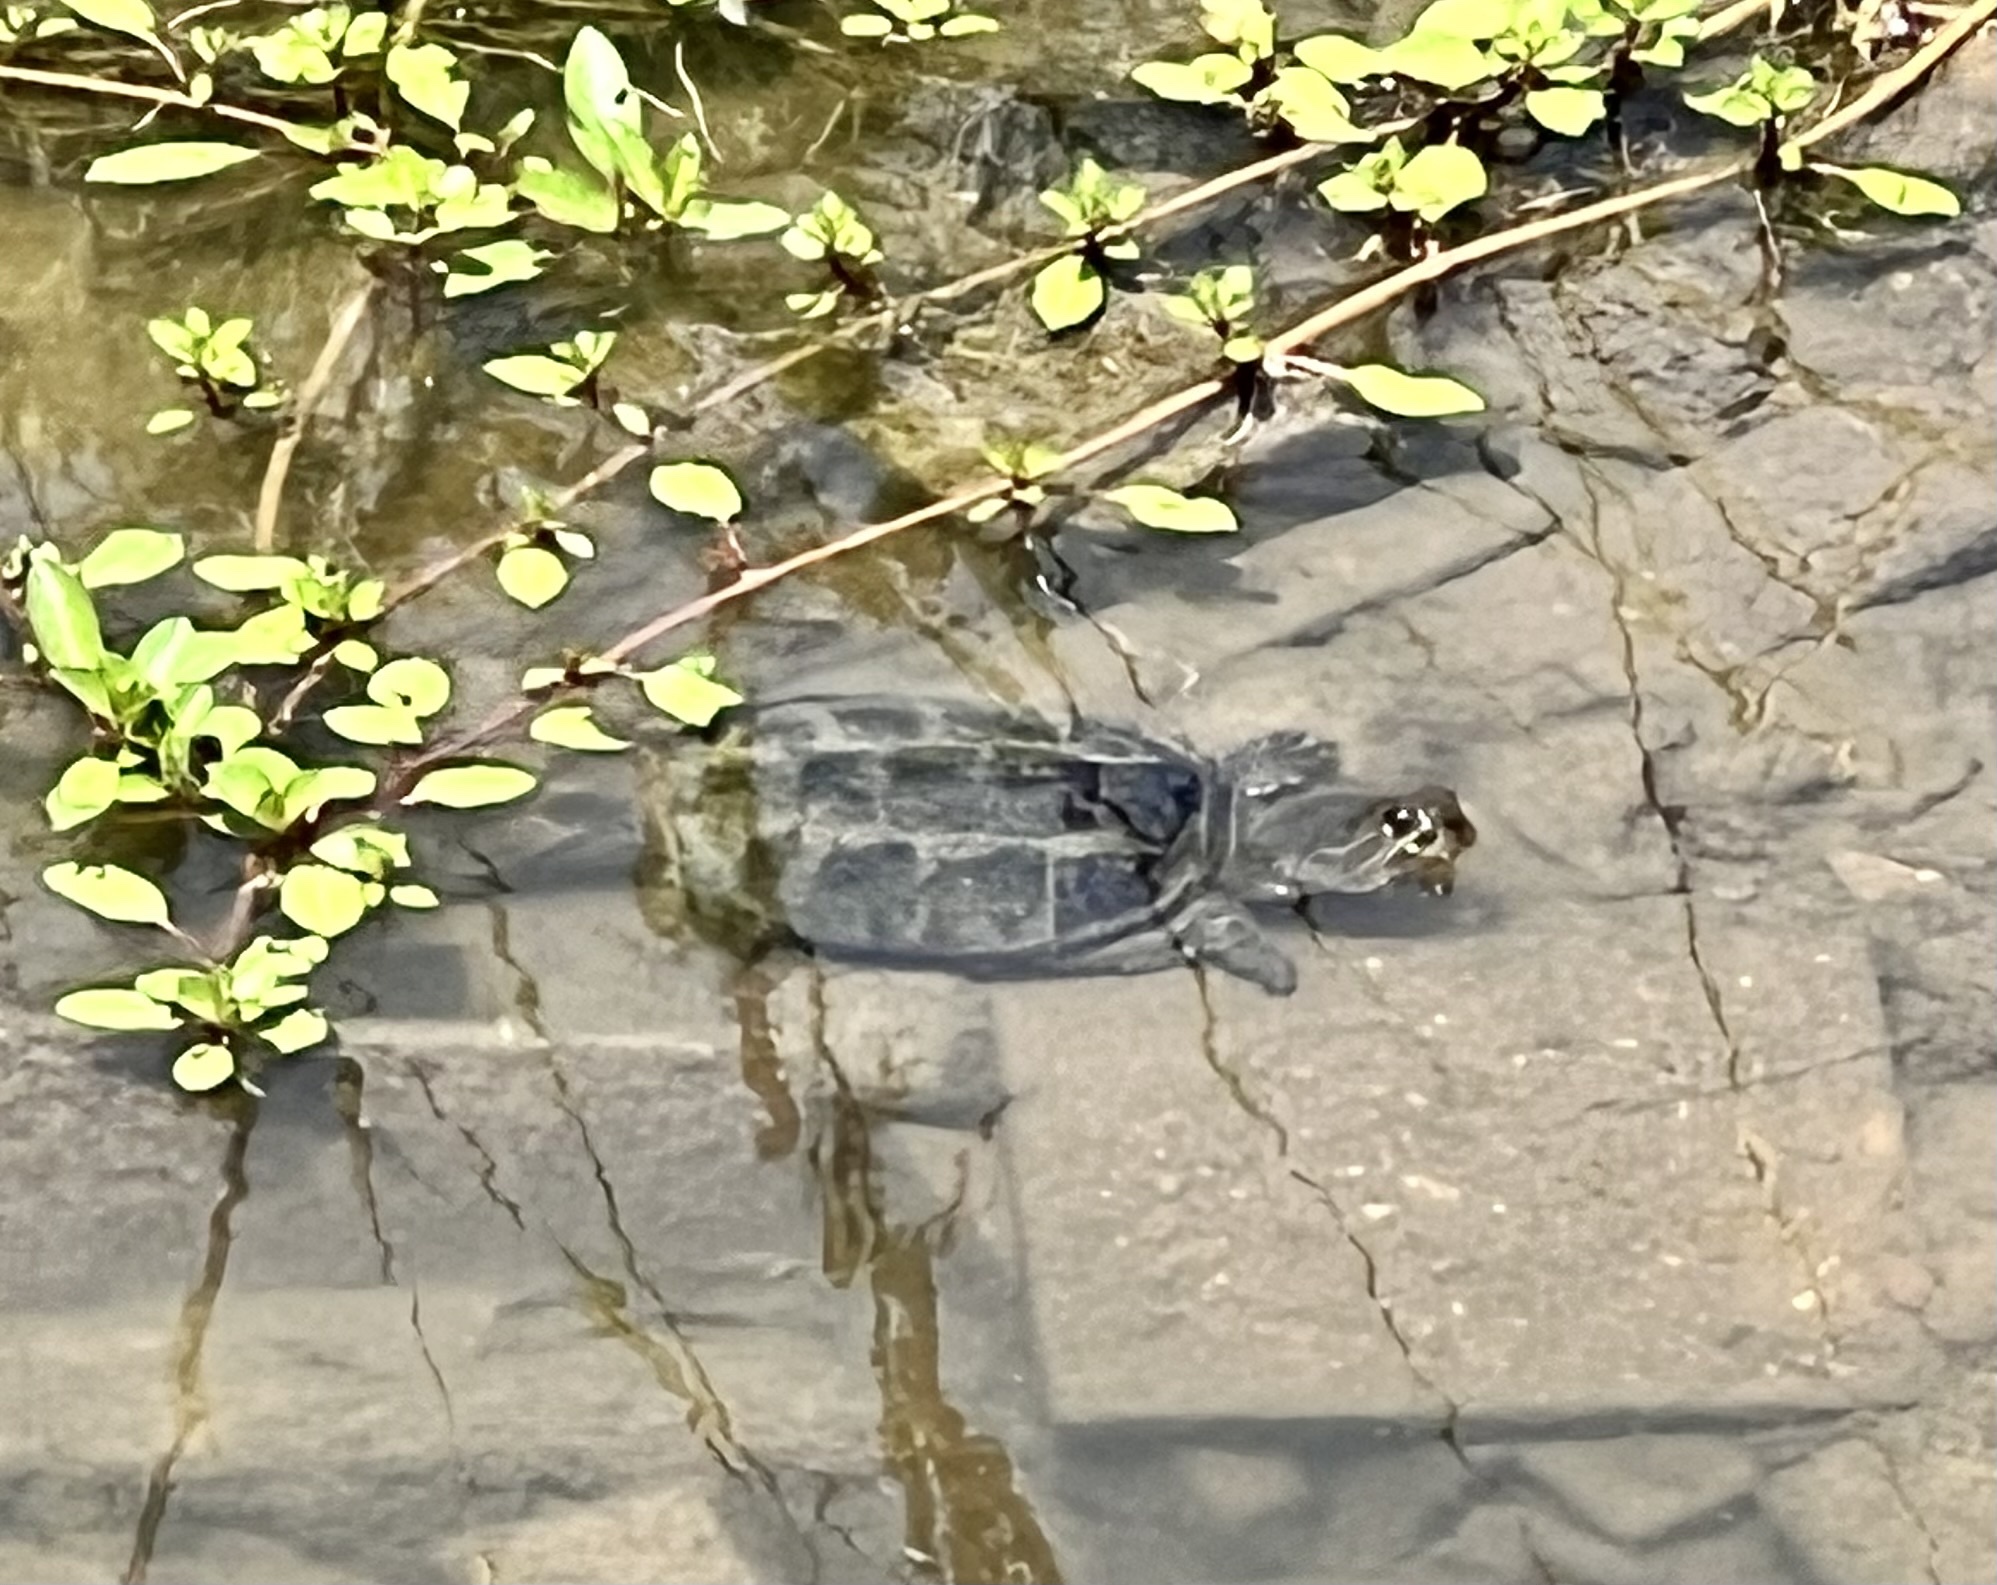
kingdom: Animalia
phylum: Chordata
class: Testudines
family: Chelydridae
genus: Chelydra
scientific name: Chelydra serpentina
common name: Common snapping turtle
